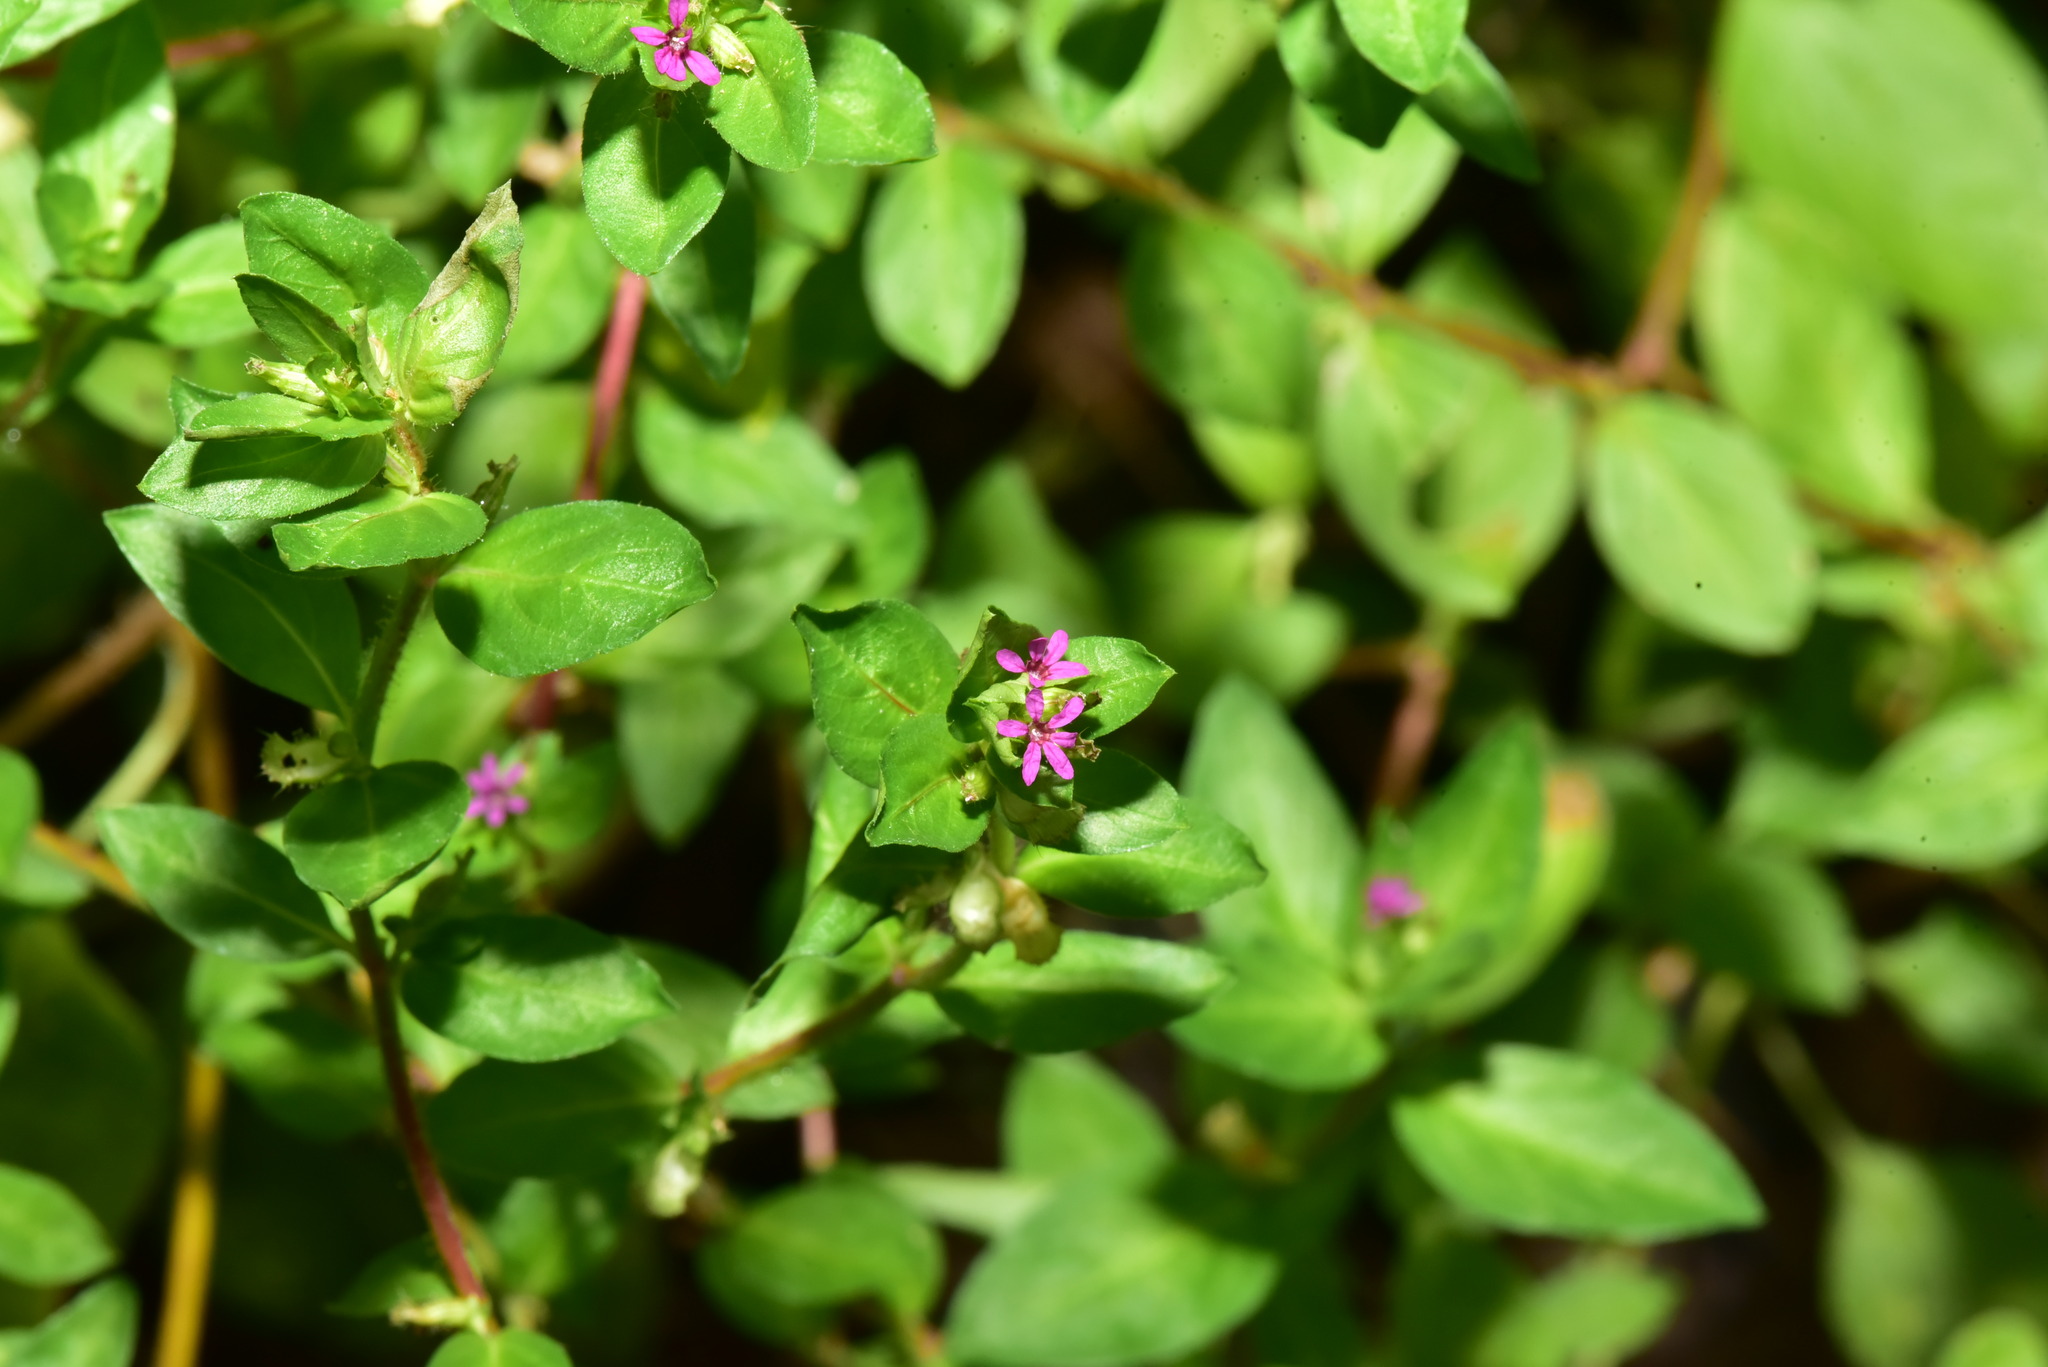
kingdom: Plantae
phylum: Tracheophyta
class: Magnoliopsida
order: Myrtales
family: Lythraceae
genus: Cuphea
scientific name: Cuphea carthagenensis
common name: Colombian waxweed
